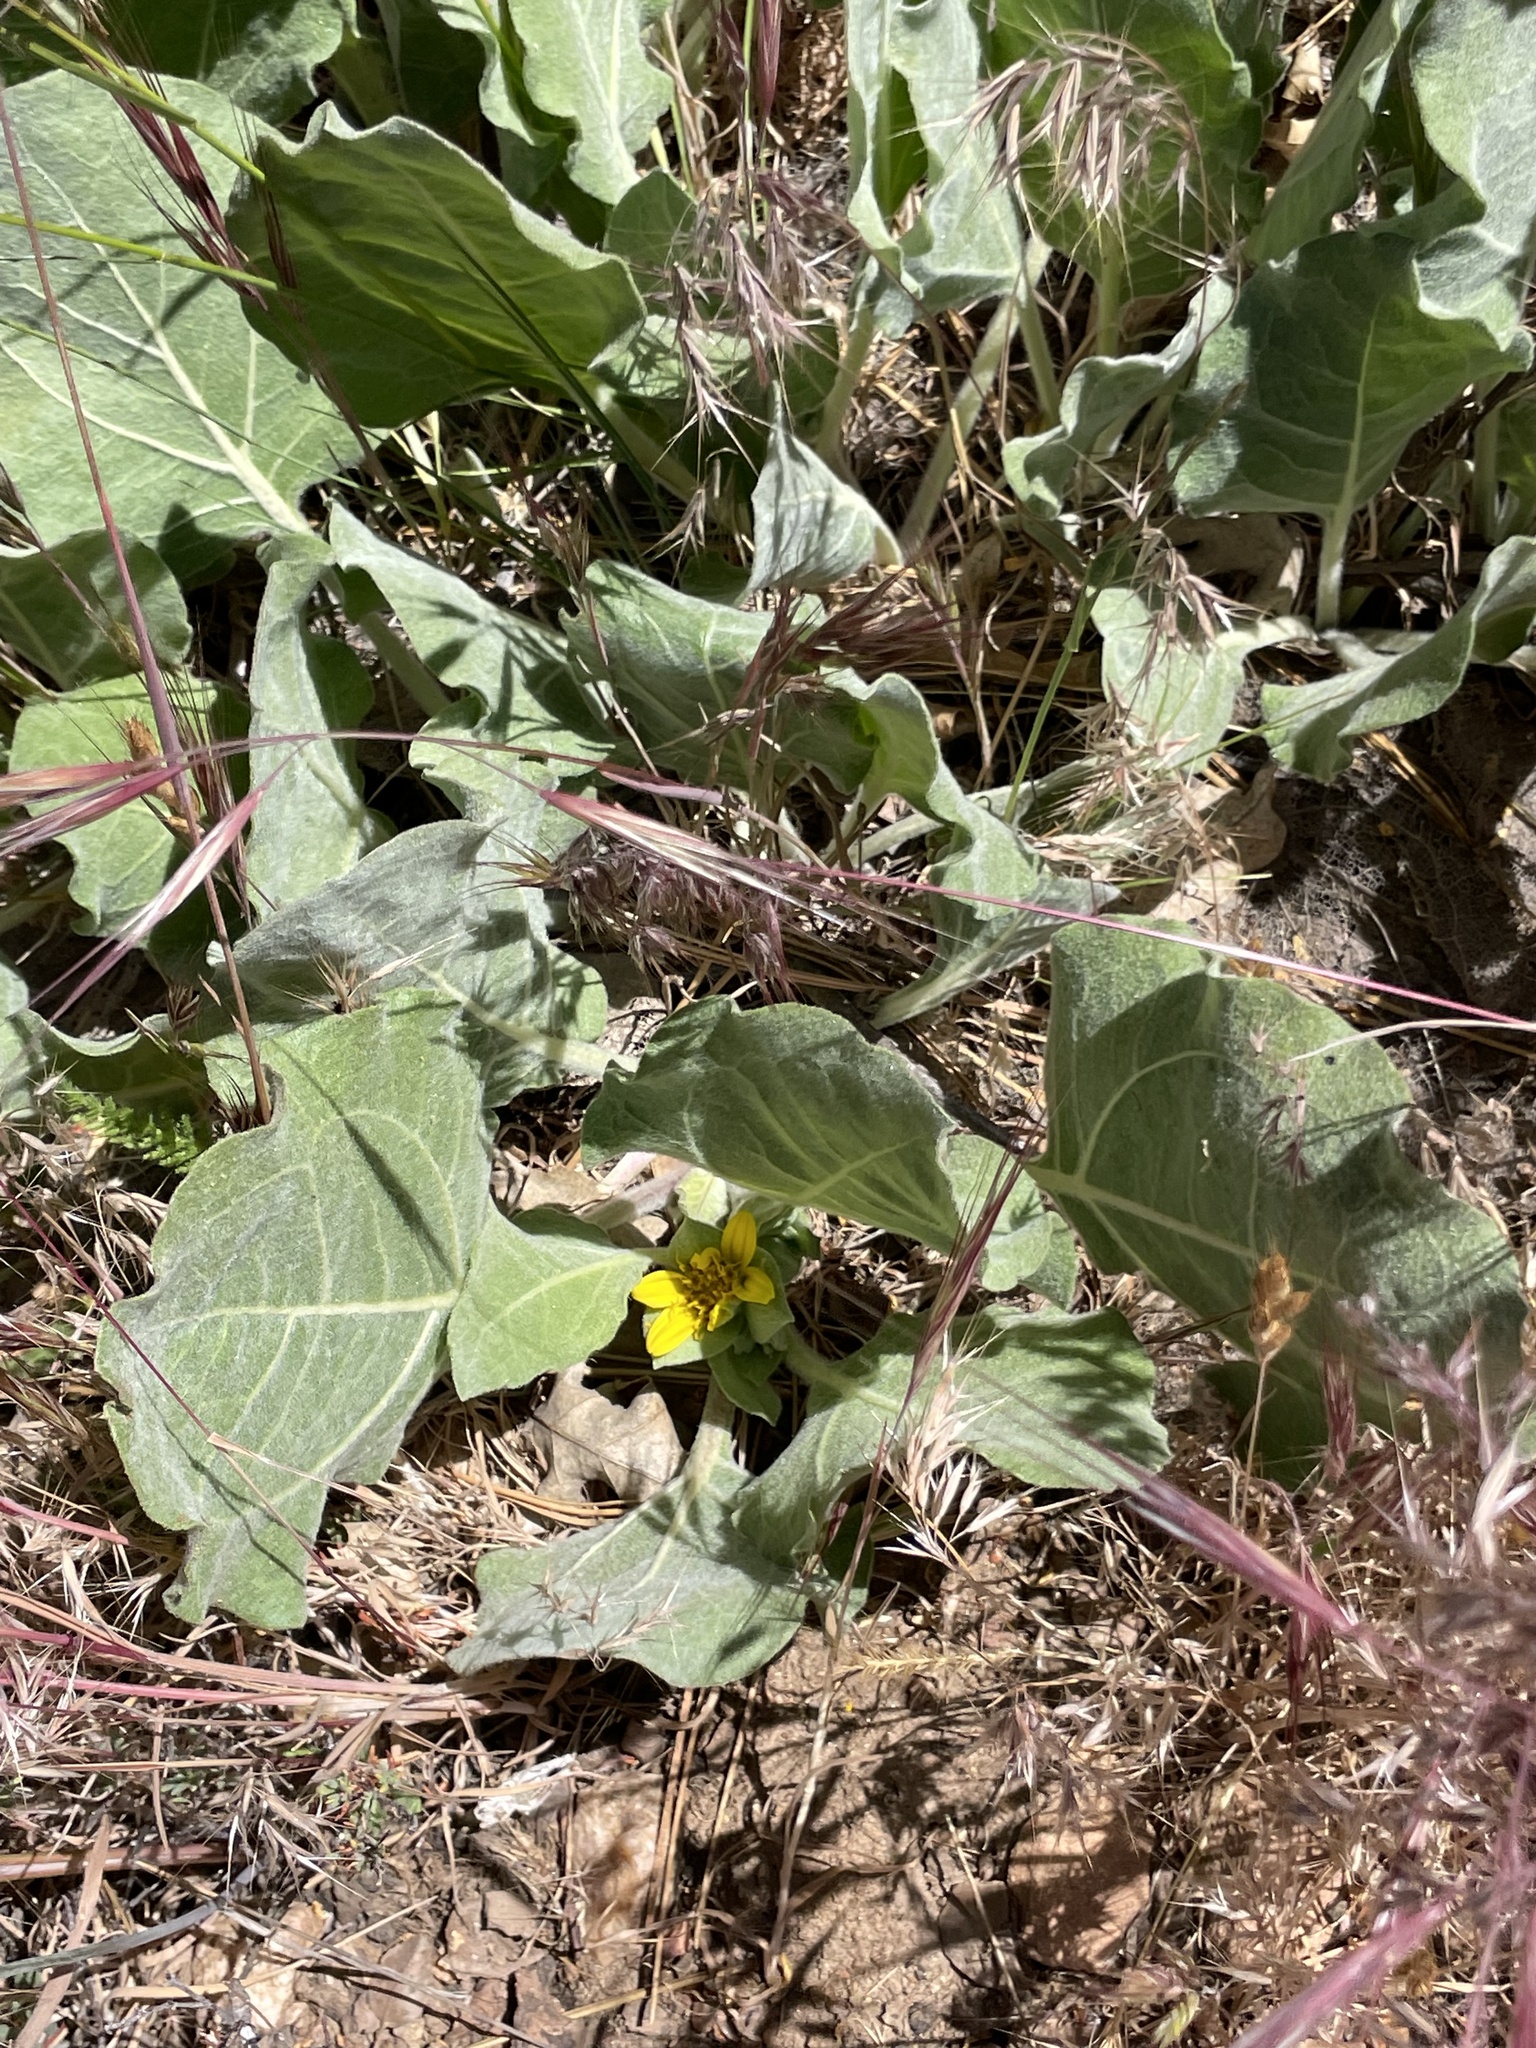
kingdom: Plantae
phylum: Tracheophyta
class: Magnoliopsida
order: Asterales
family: Asteraceae
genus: Agnorhiza
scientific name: Agnorhiza ovata
